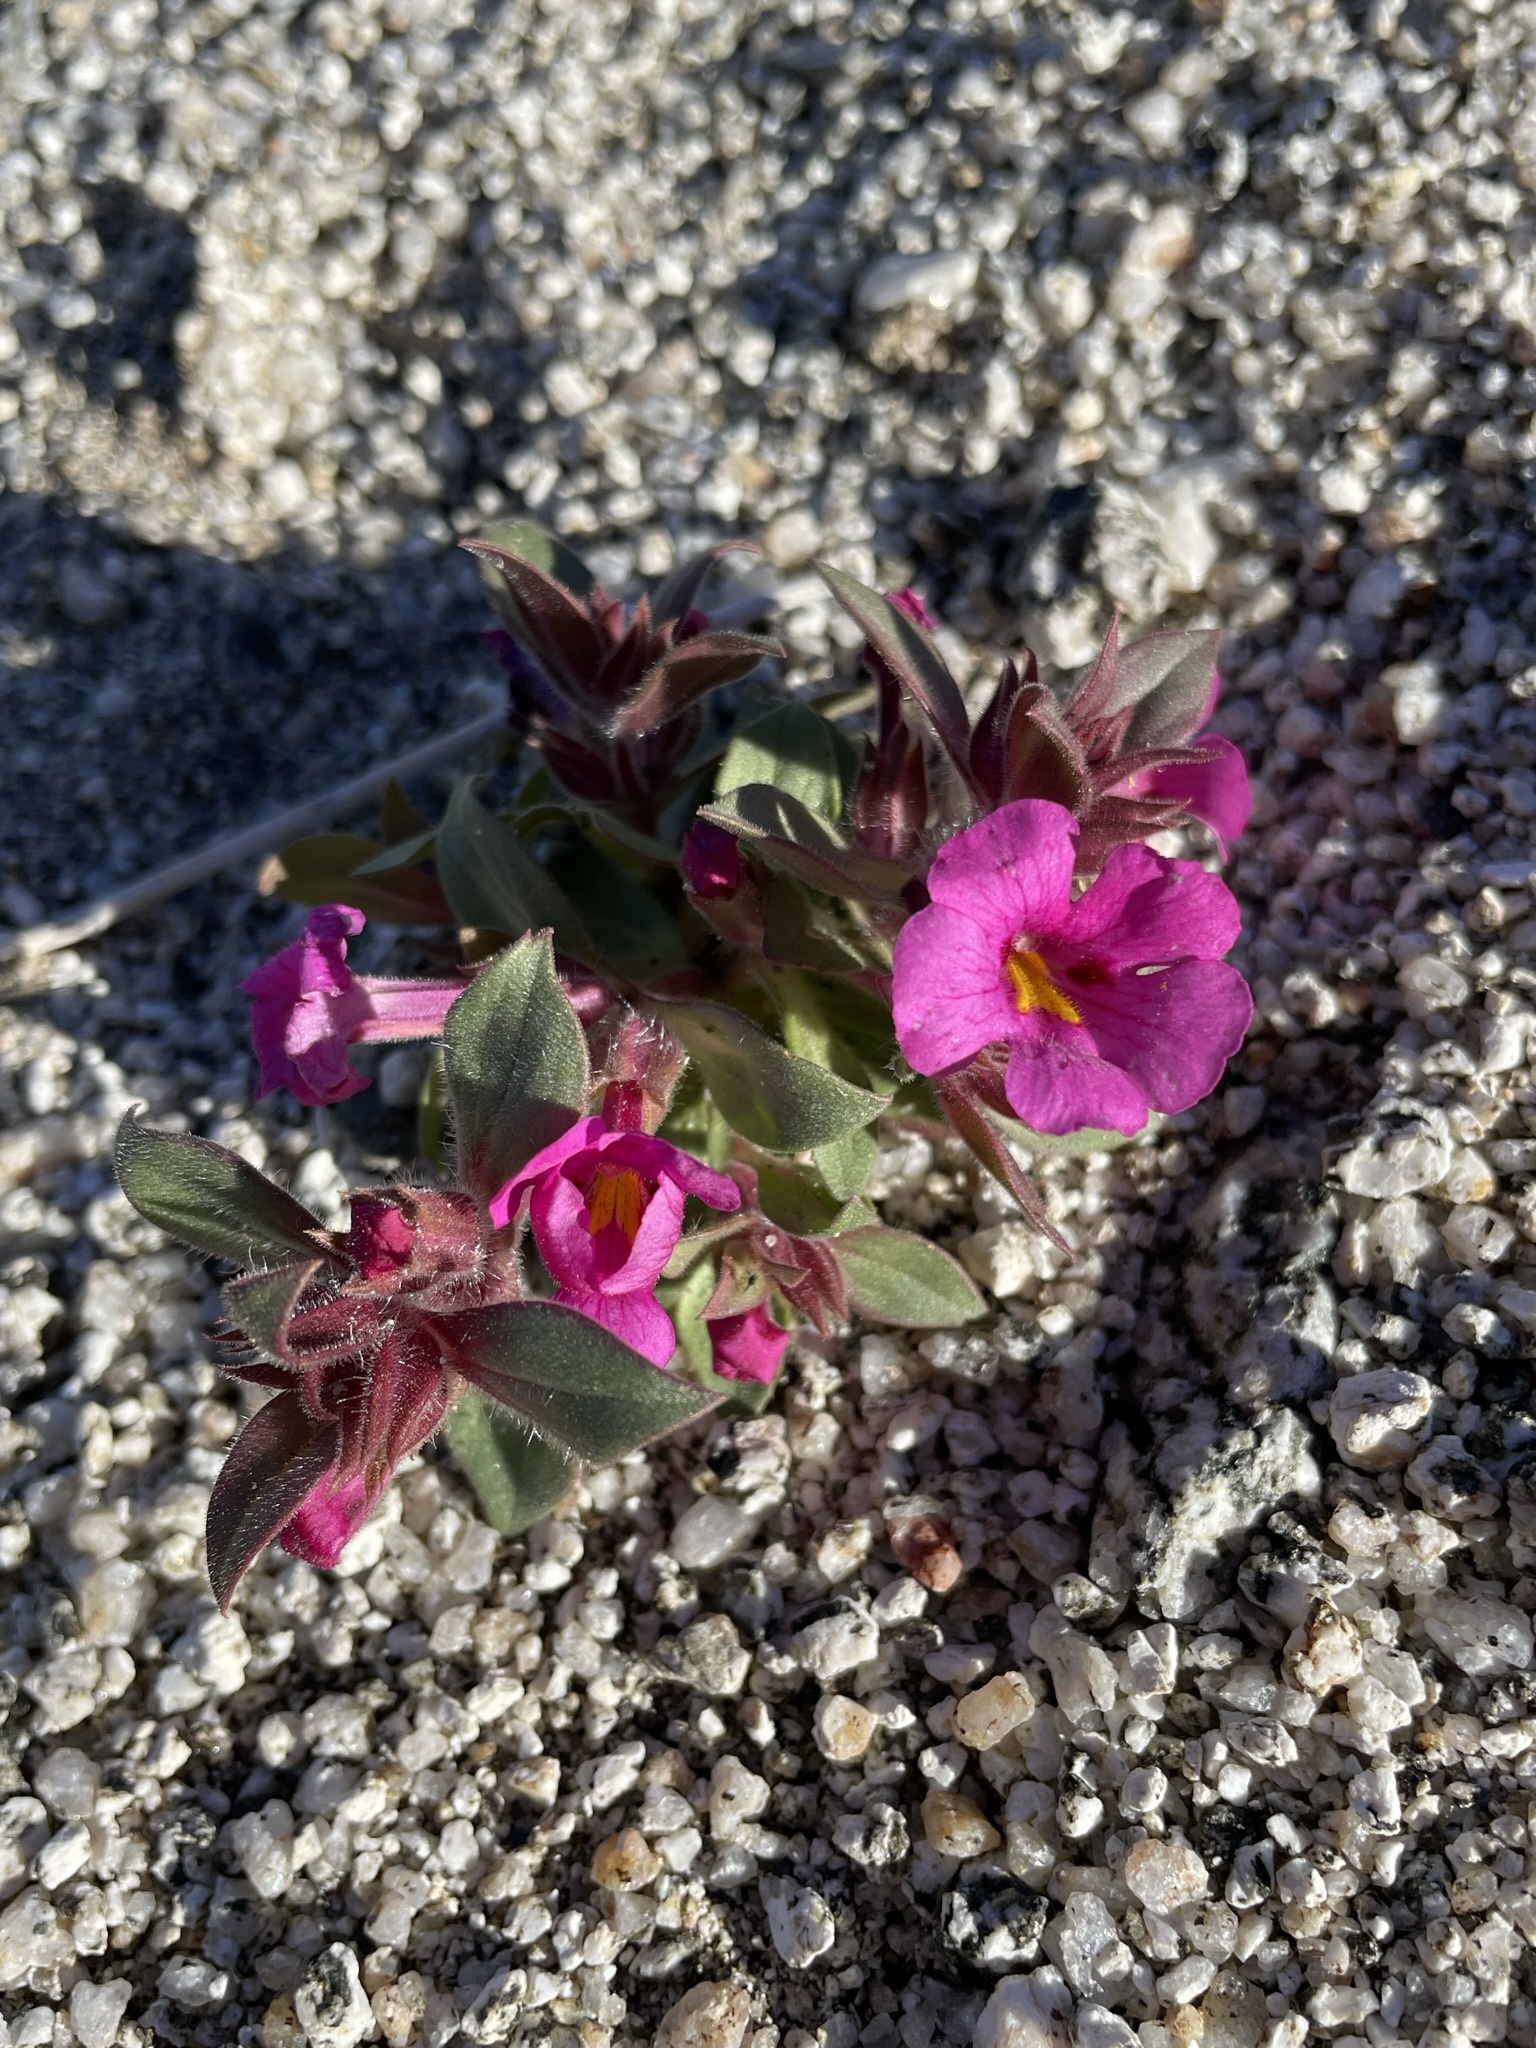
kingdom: Plantae
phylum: Tracheophyta
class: Magnoliopsida
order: Lamiales
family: Phrymaceae
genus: Diplacus
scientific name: Diplacus bigelovii
